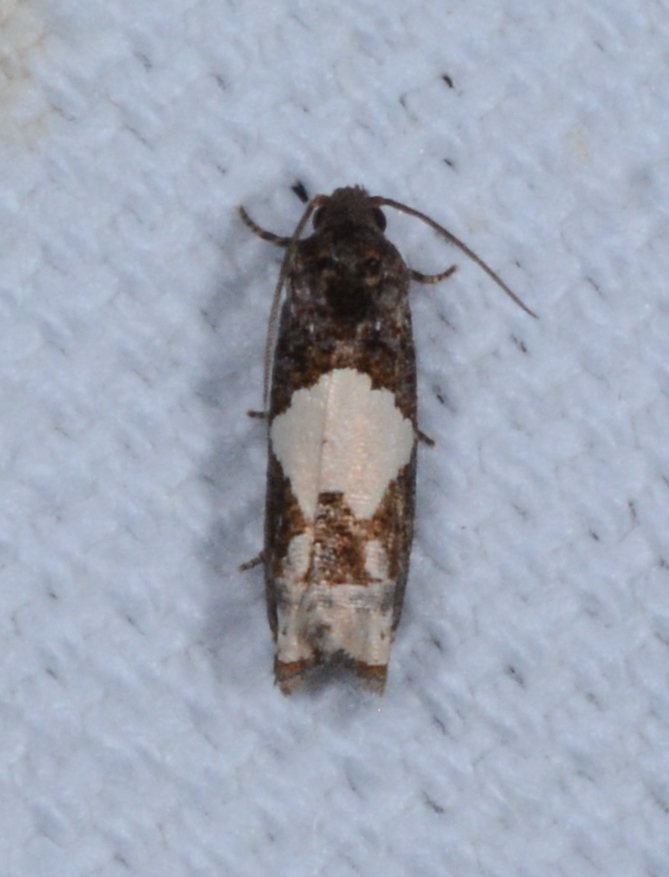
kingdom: Animalia
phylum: Arthropoda
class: Insecta
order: Lepidoptera
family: Tortricidae
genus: Epiblema
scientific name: Epiblema otiosana
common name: Bidens borer moth
